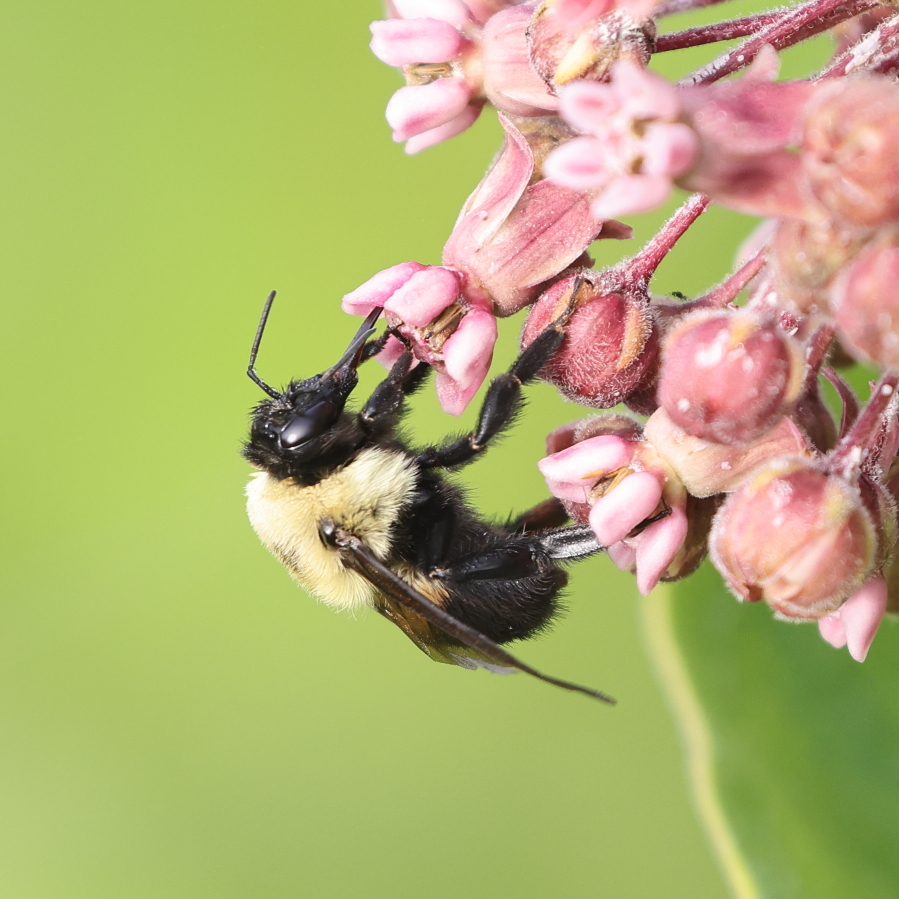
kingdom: Animalia
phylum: Arthropoda
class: Insecta
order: Hymenoptera
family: Apidae
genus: Bombus
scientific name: Bombus griseocollis
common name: Brown-belted bumble bee
